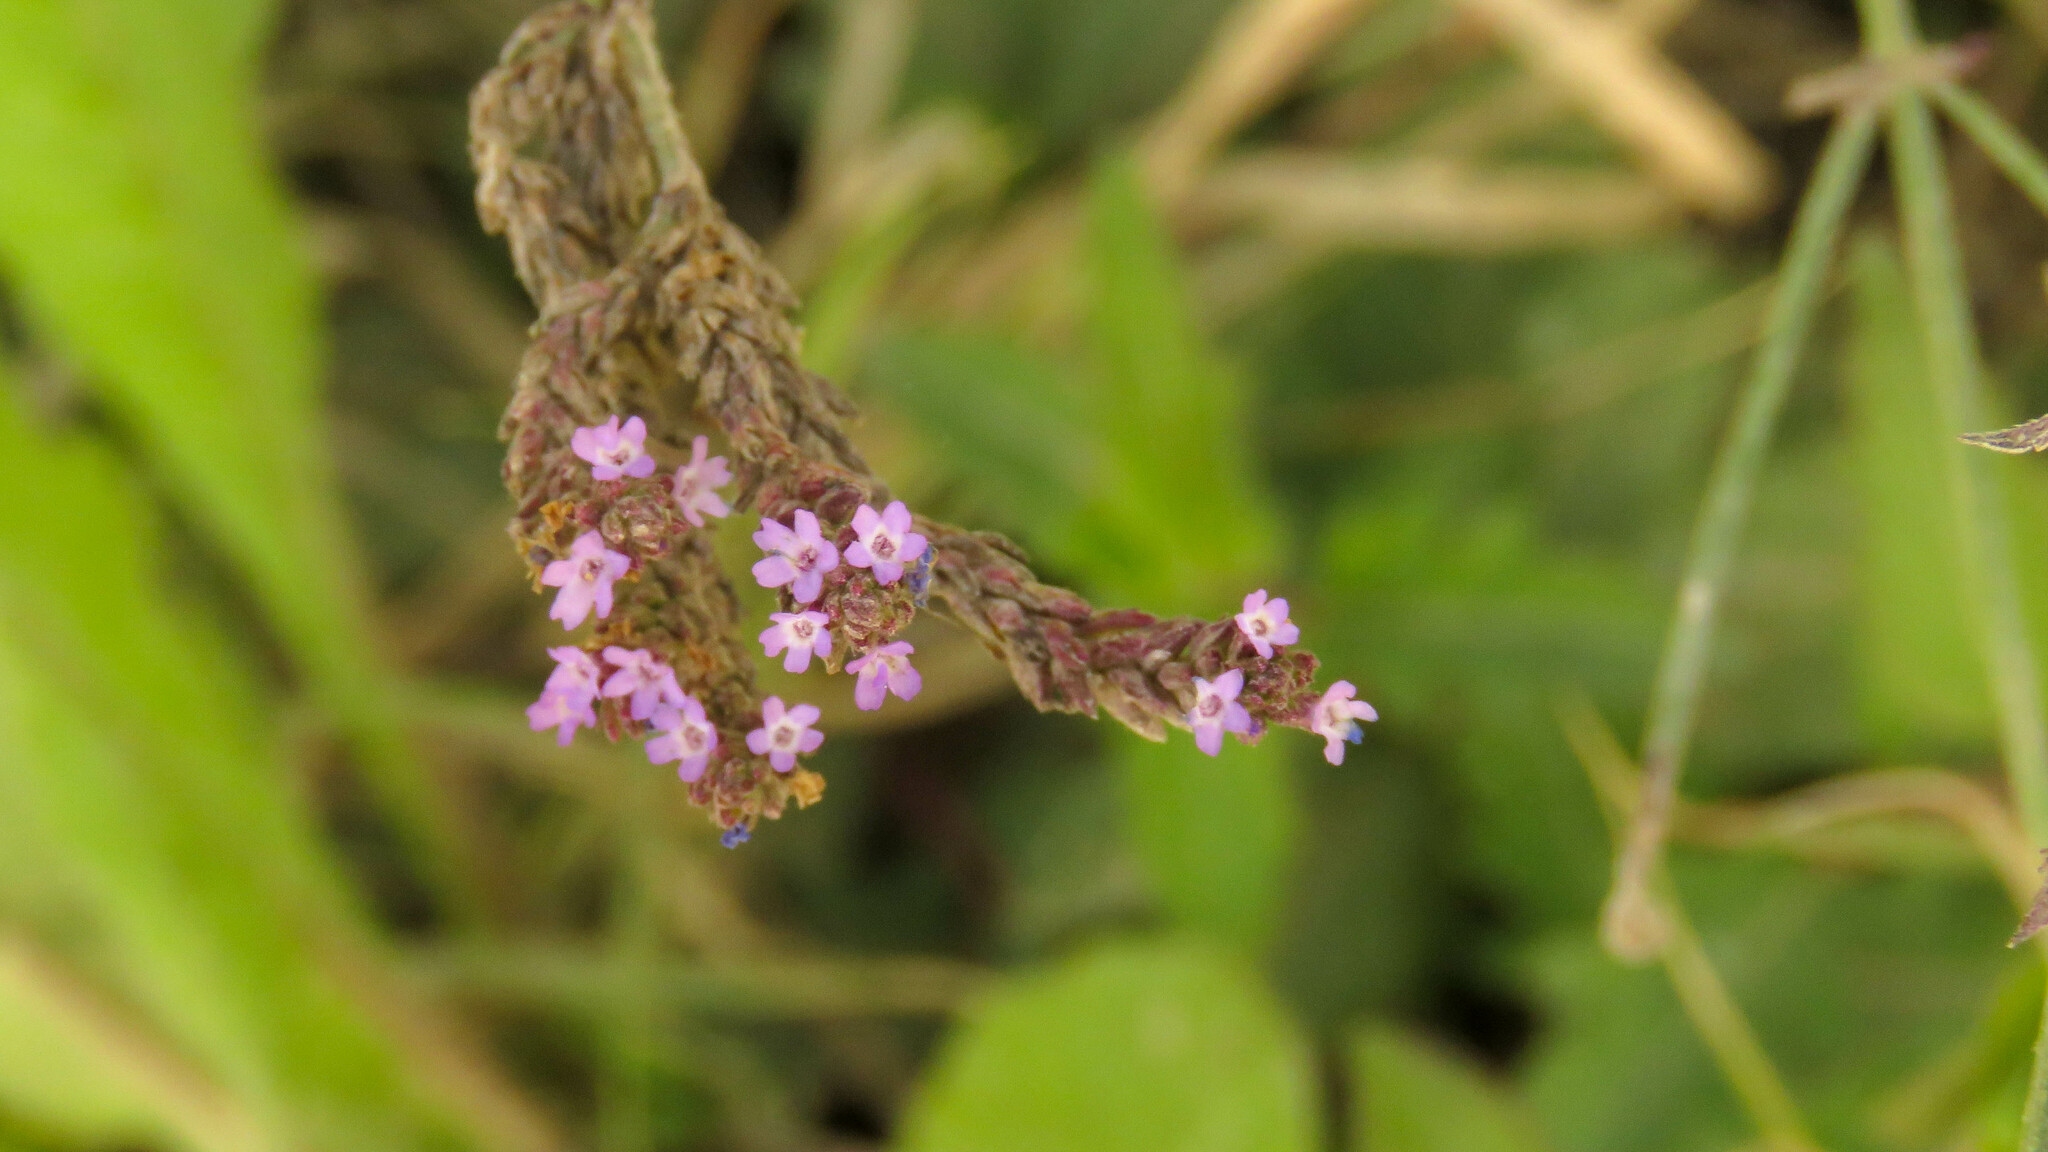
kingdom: Plantae
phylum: Tracheophyta
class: Magnoliopsida
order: Lamiales
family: Verbenaceae
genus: Verbena
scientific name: Verbena litoralis
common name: Seashore vervain
